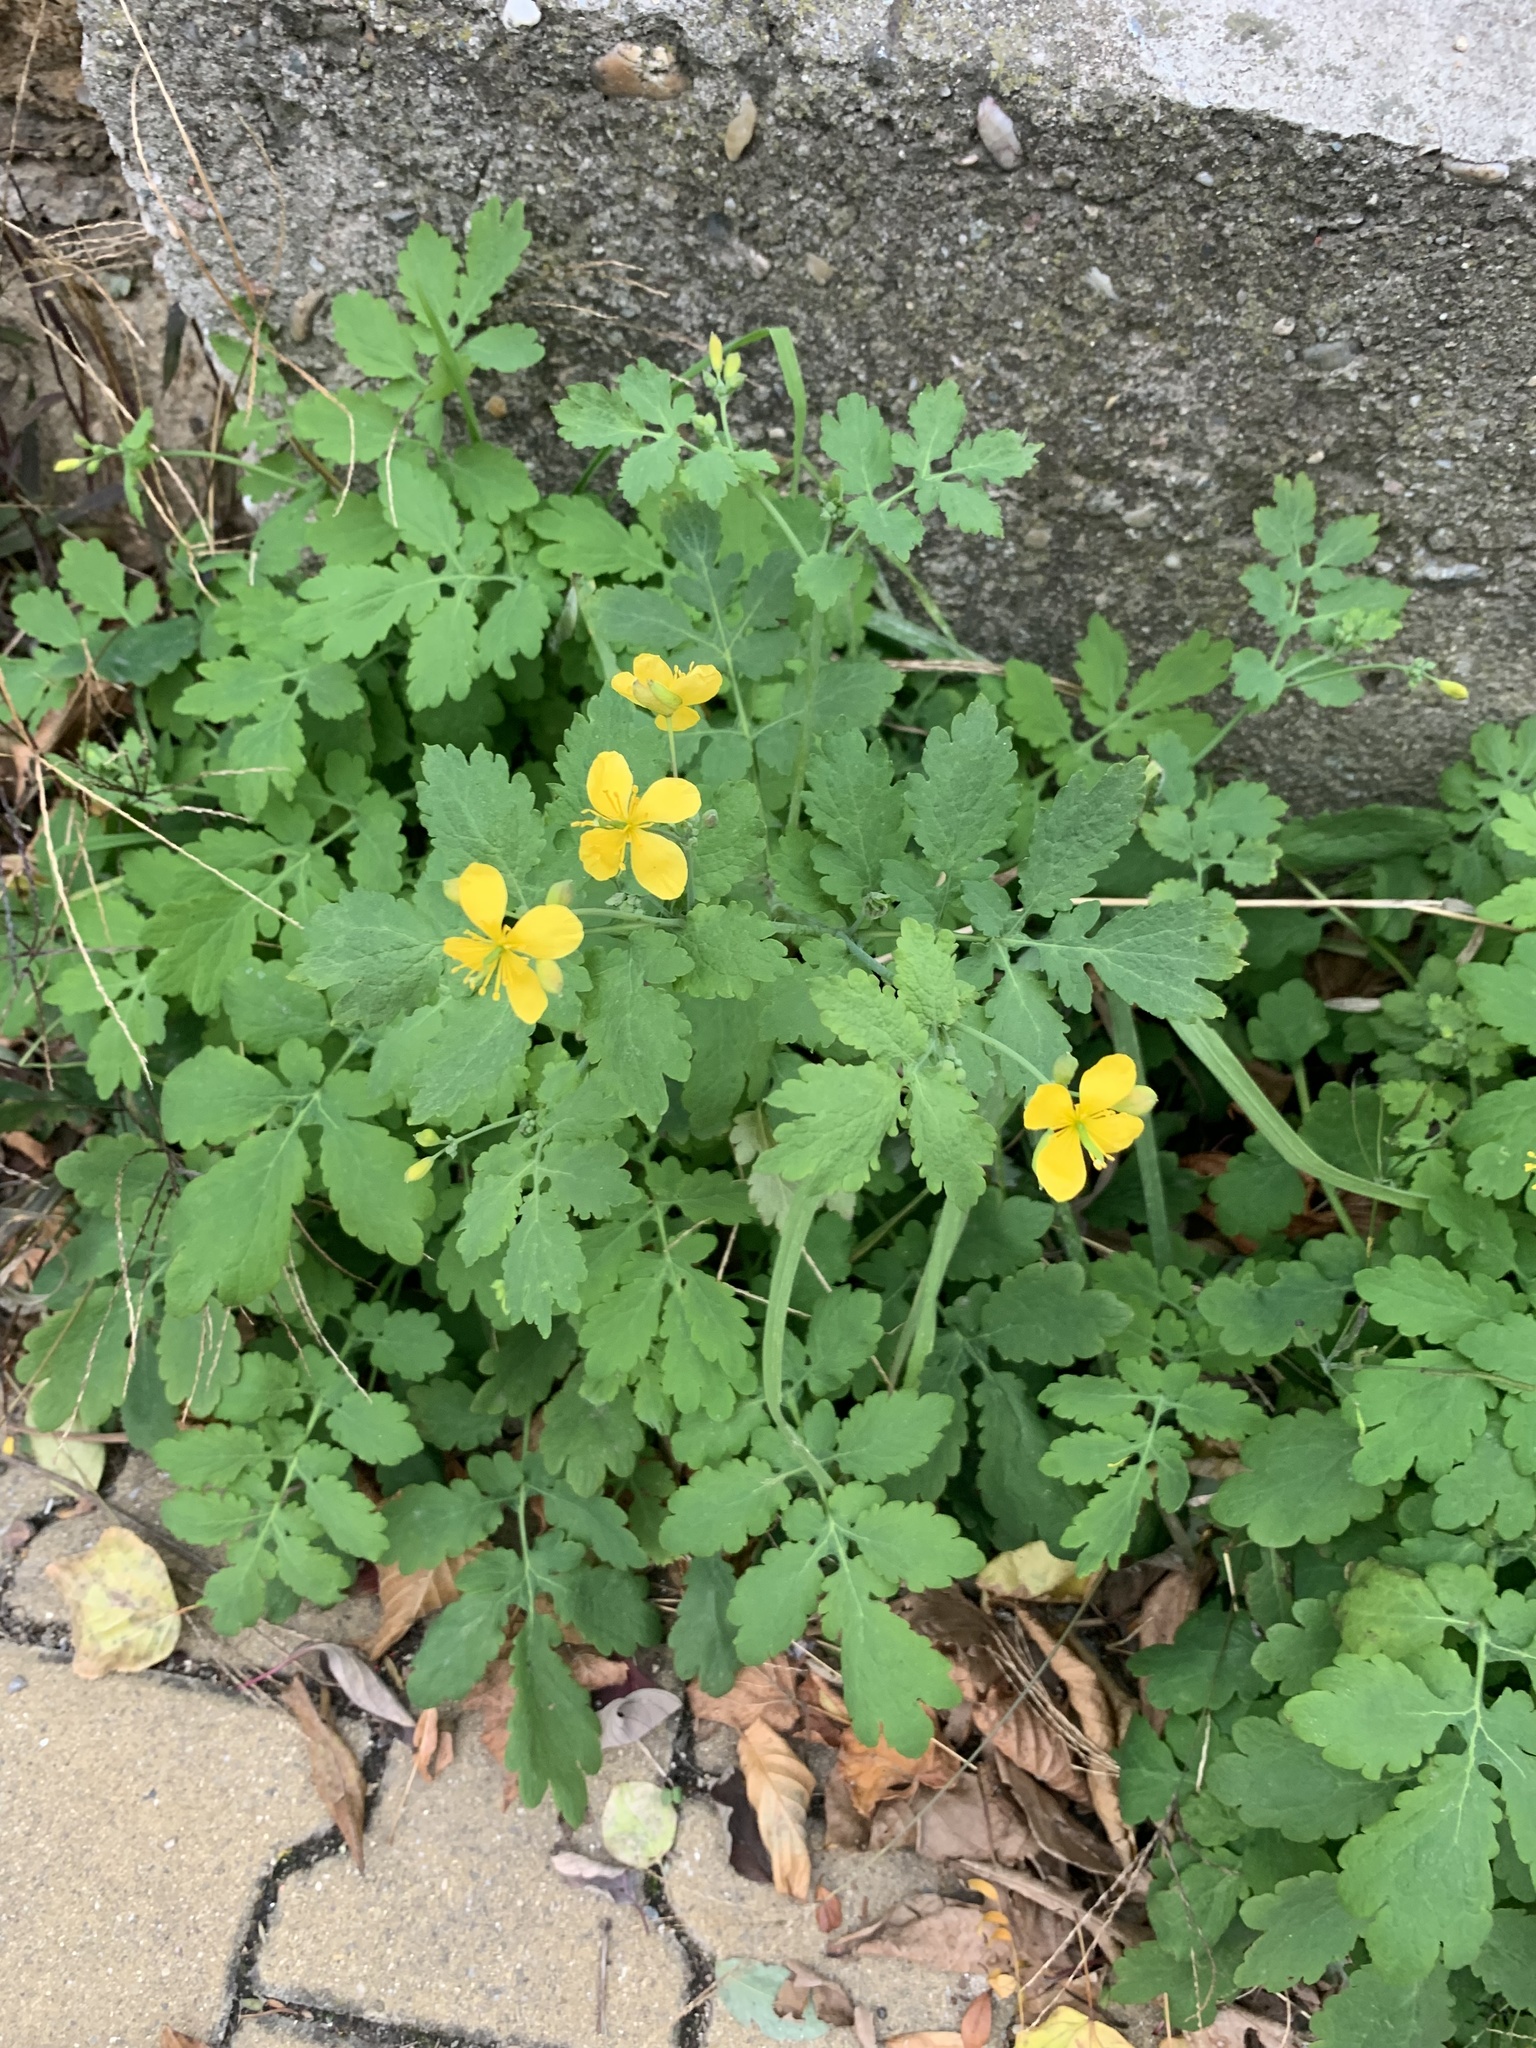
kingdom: Plantae
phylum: Tracheophyta
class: Magnoliopsida
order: Ranunculales
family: Papaveraceae
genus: Chelidonium
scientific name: Chelidonium majus
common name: Greater celandine
